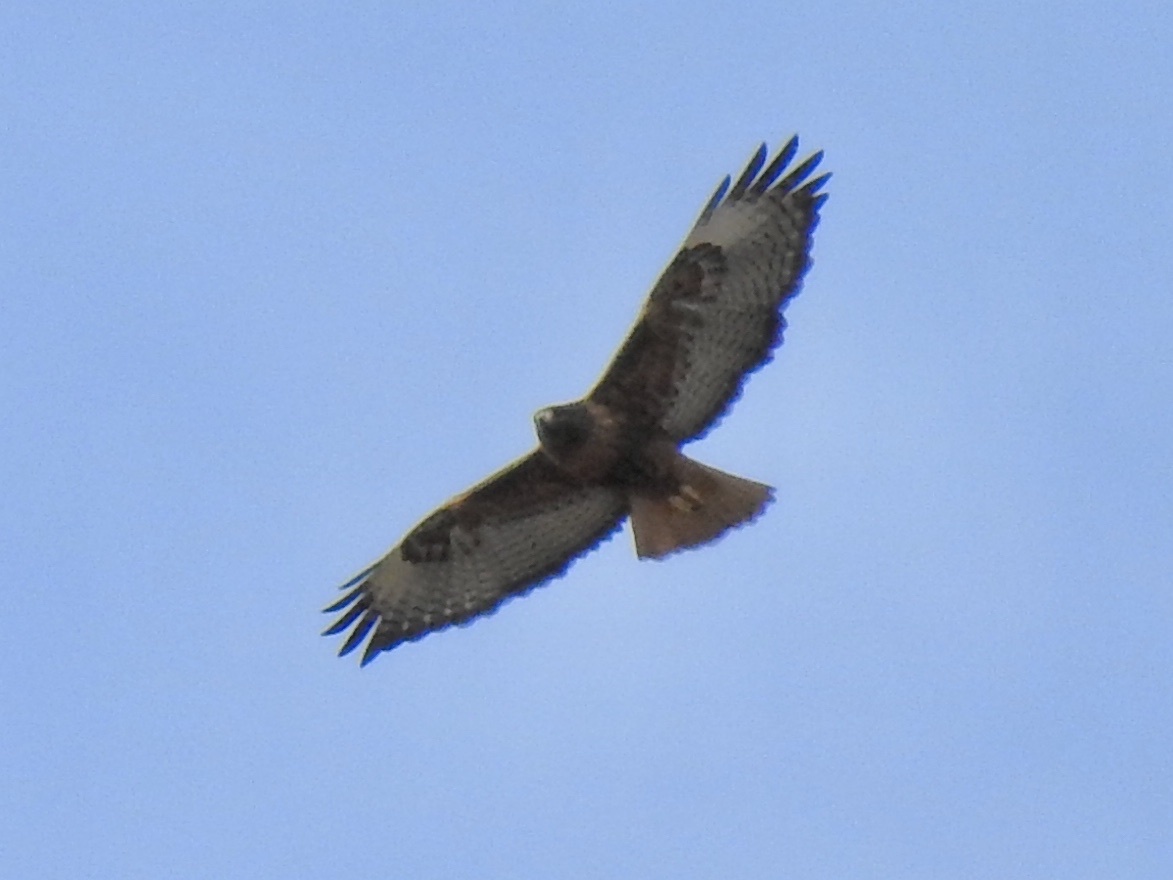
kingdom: Animalia
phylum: Chordata
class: Aves
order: Accipitriformes
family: Accipitridae
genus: Buteo
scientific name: Buteo jamaicensis
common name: Red-tailed hawk
